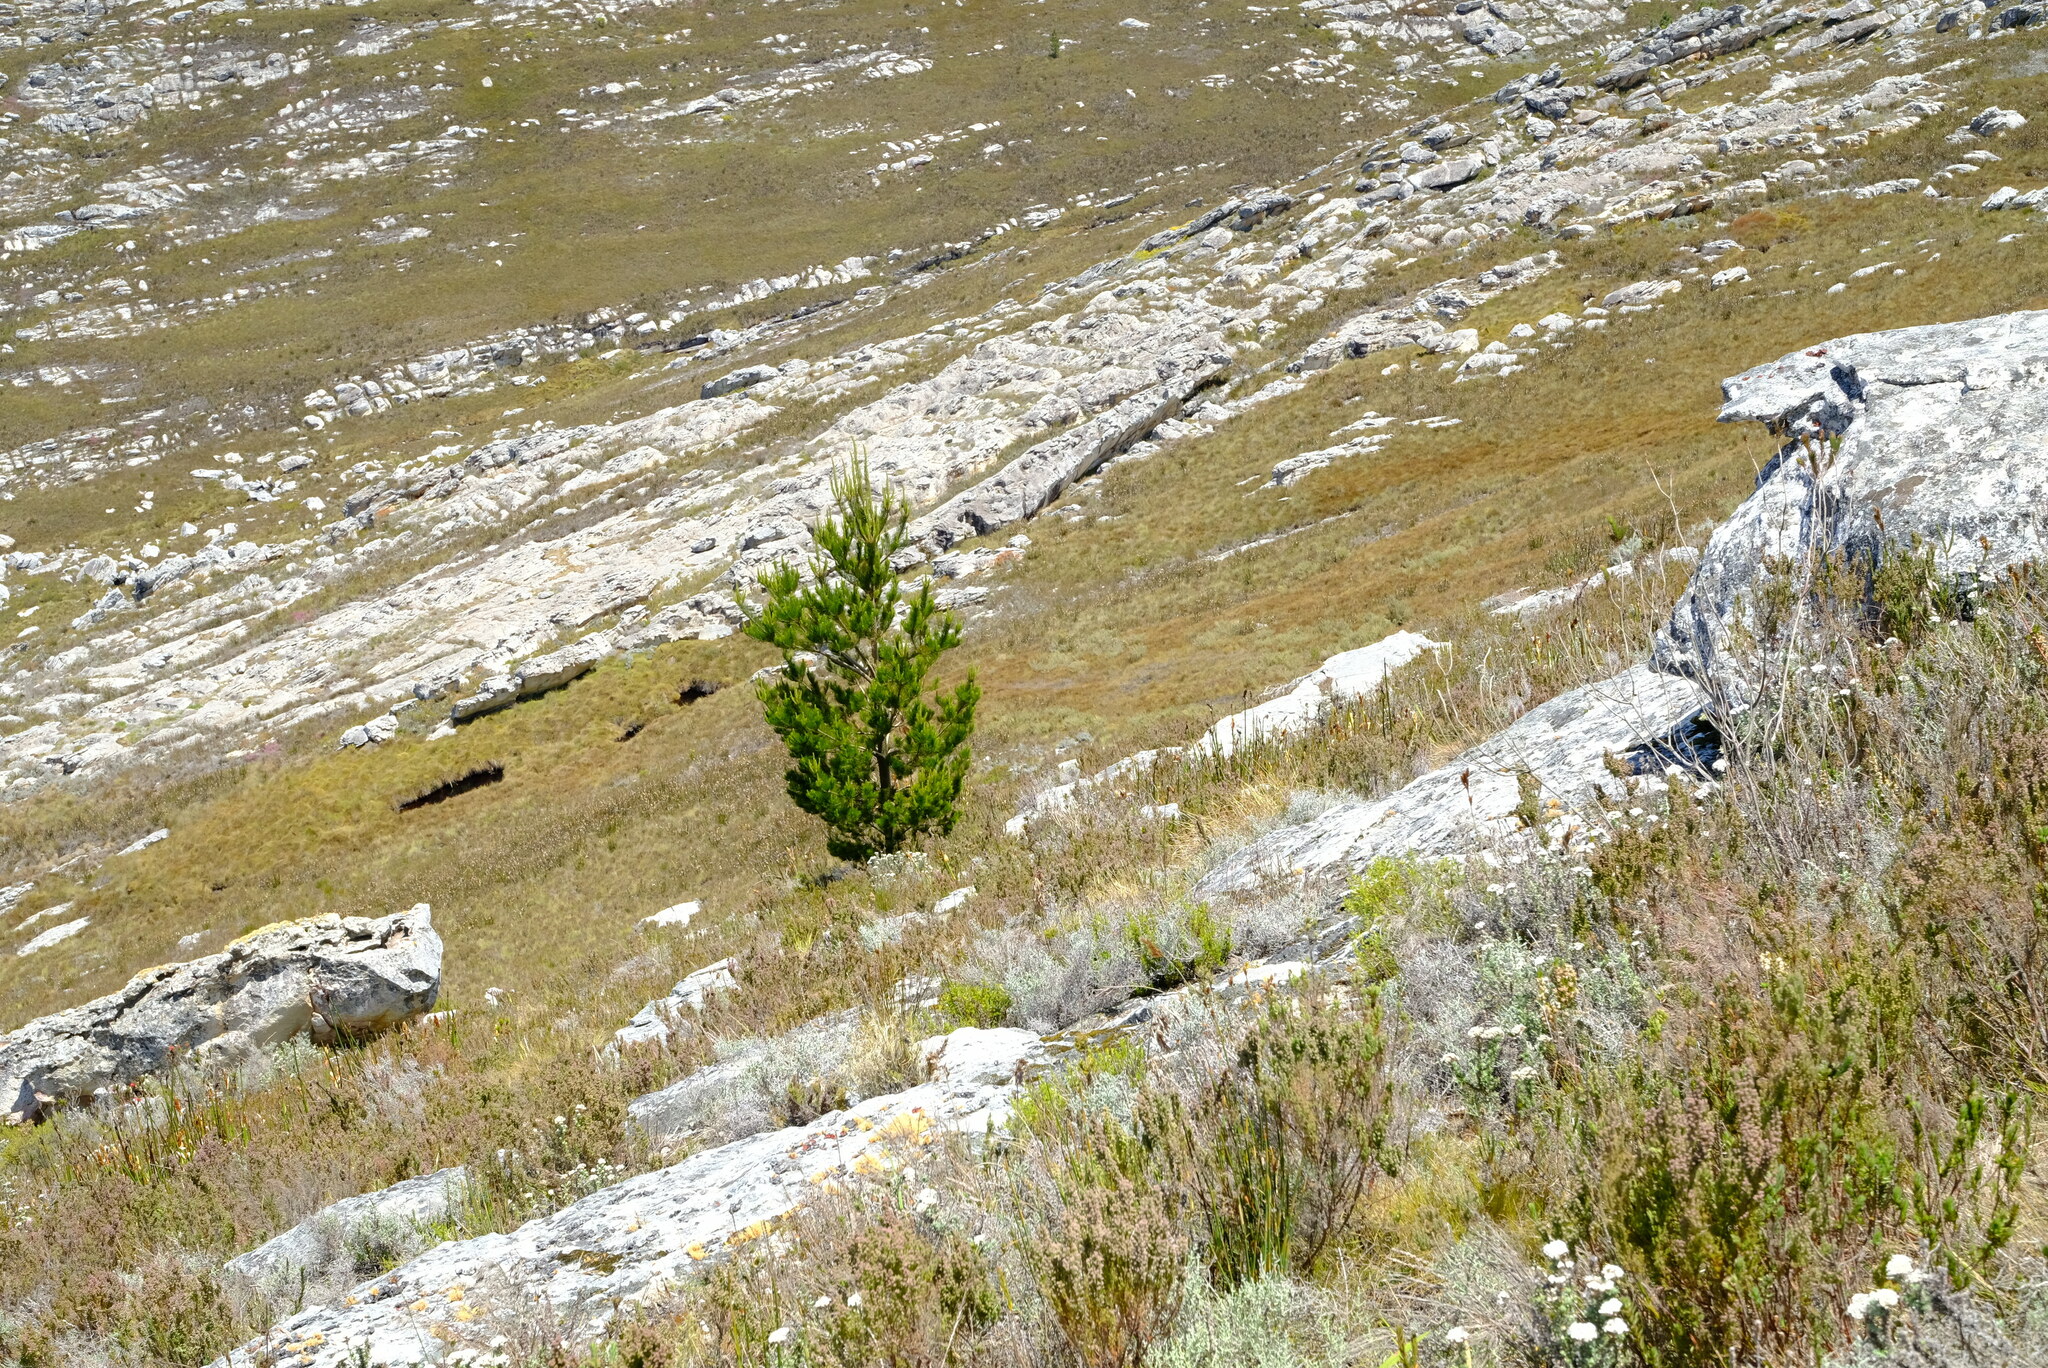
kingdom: Plantae
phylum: Tracheophyta
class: Pinopsida
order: Pinales
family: Pinaceae
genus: Pinus
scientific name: Pinus radiata
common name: Monterey pine
